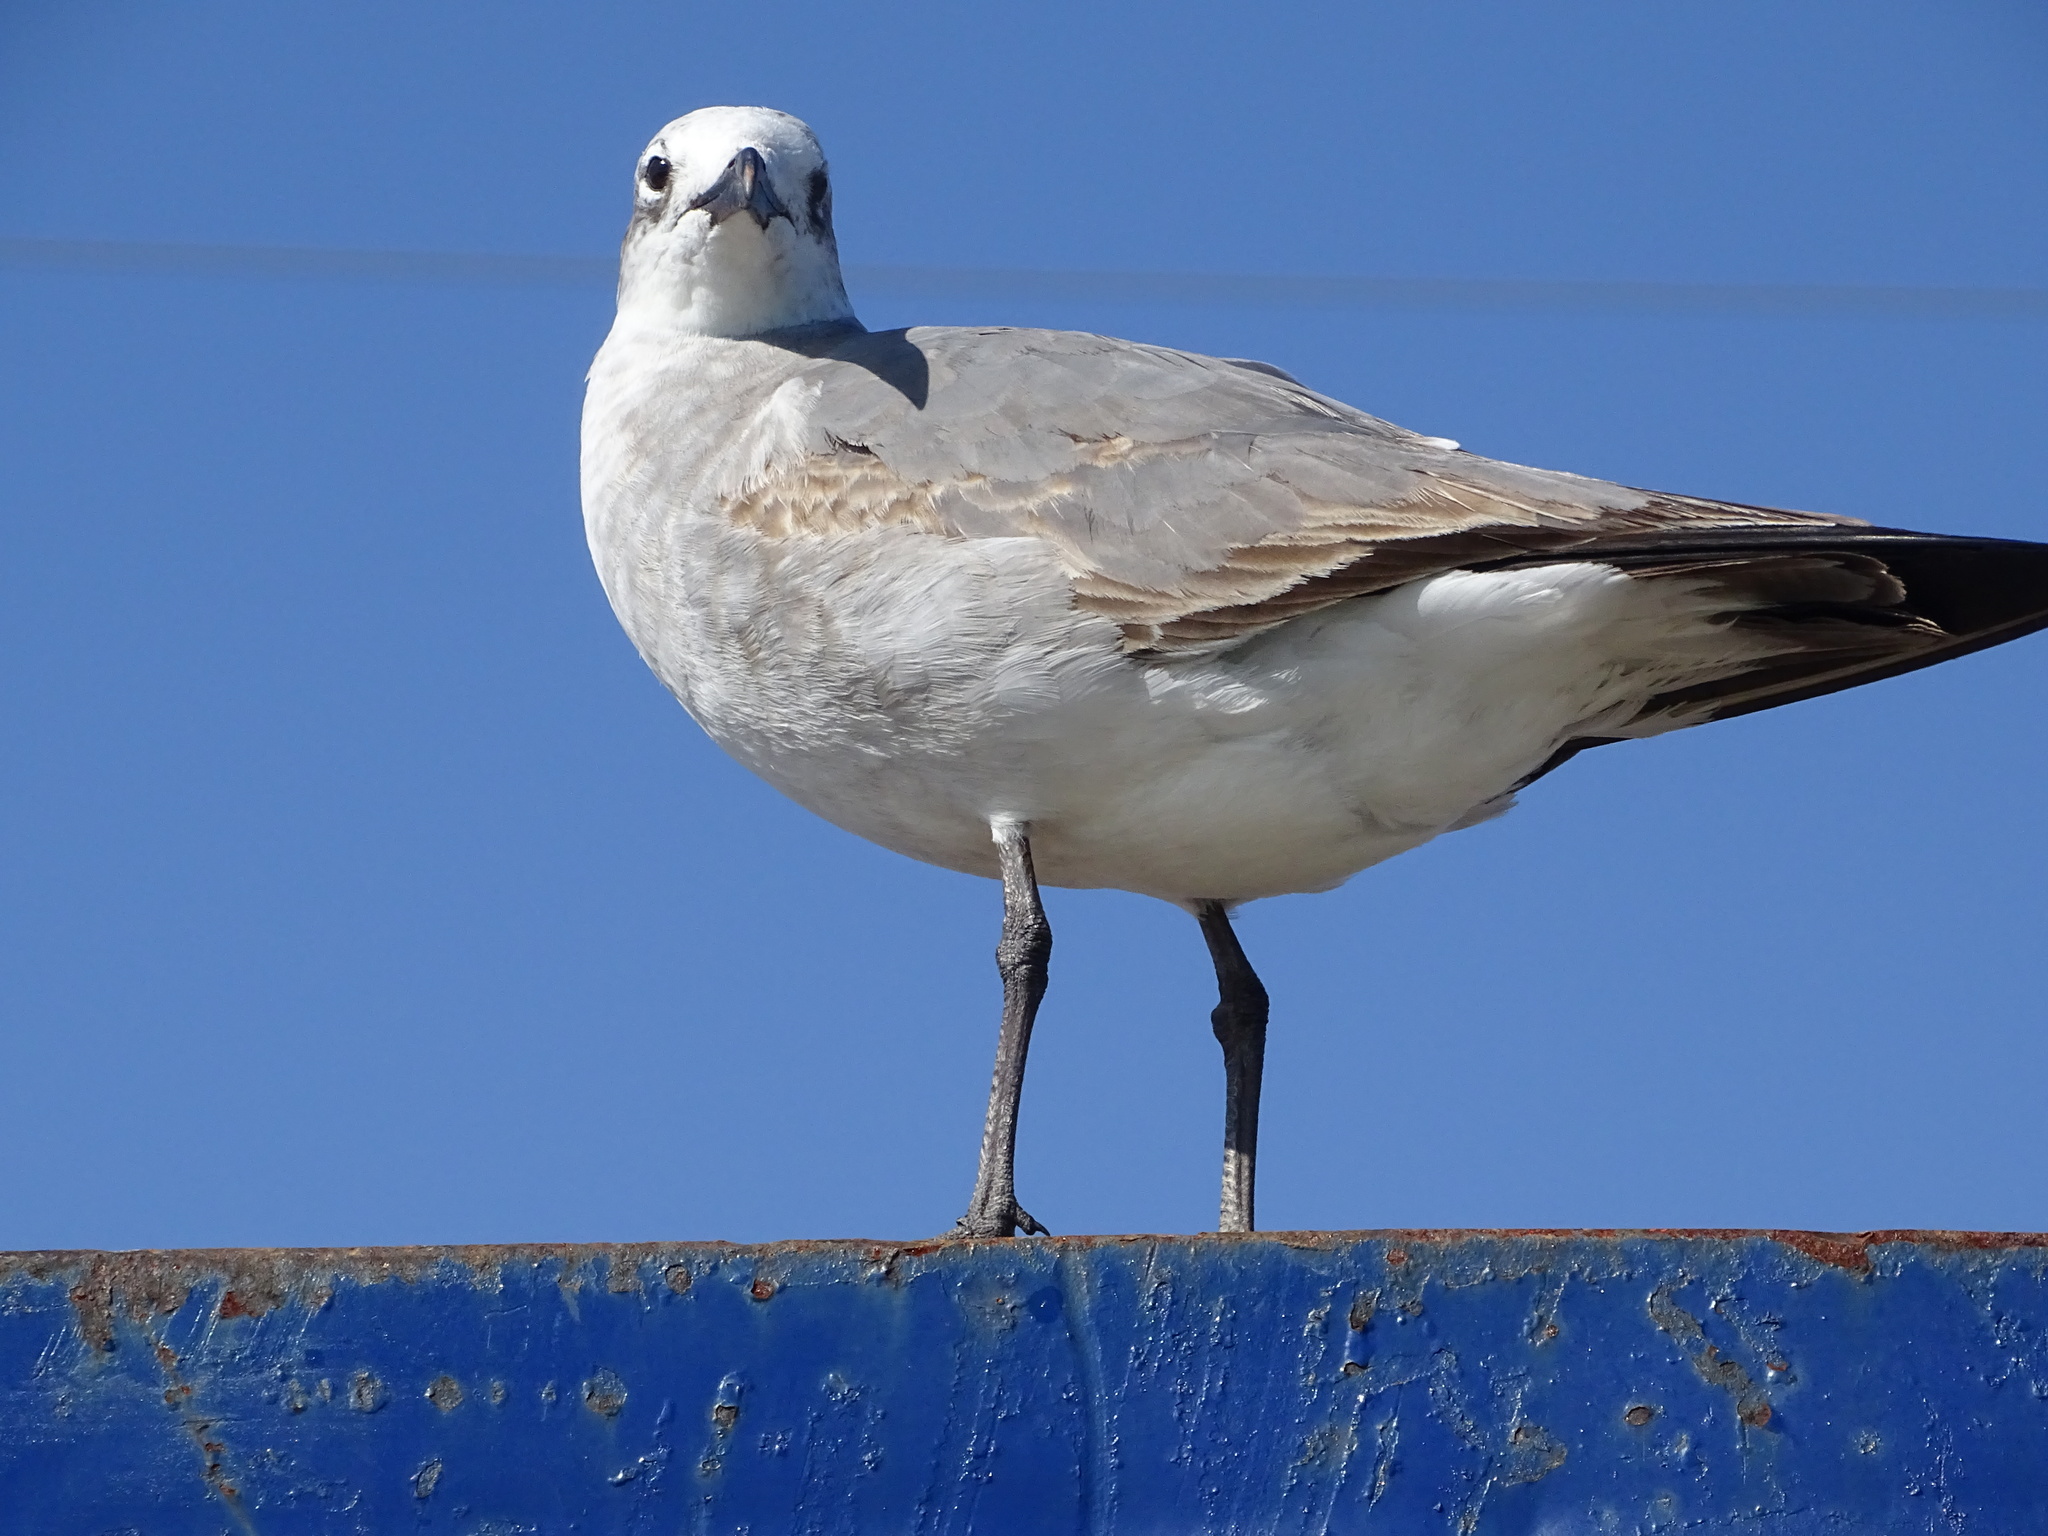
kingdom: Animalia
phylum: Chordata
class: Aves
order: Charadriiformes
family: Laridae
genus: Leucophaeus
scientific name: Leucophaeus atricilla
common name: Laughing gull
